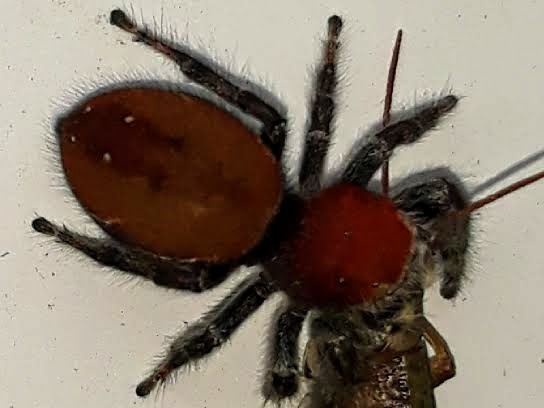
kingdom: Animalia
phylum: Arthropoda
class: Arachnida
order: Araneae
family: Salticidae
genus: Phidippus
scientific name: Phidippus cardinalis
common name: Cardinal jumper
